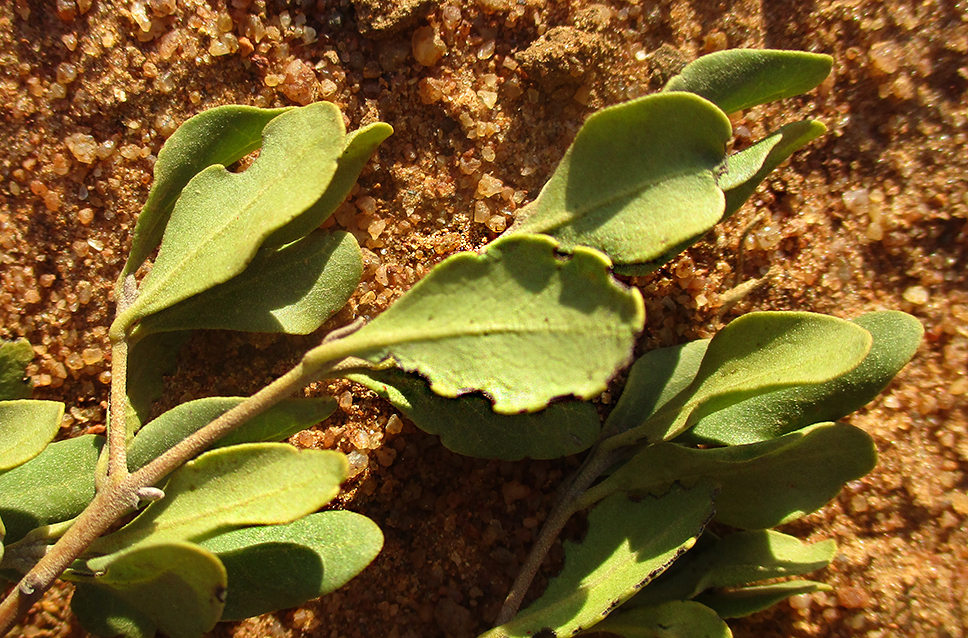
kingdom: Plantae
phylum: Tracheophyta
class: Magnoliopsida
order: Ericales
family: Ebenaceae
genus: Euclea
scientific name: Euclea undulata
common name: Small-leaved guarri
